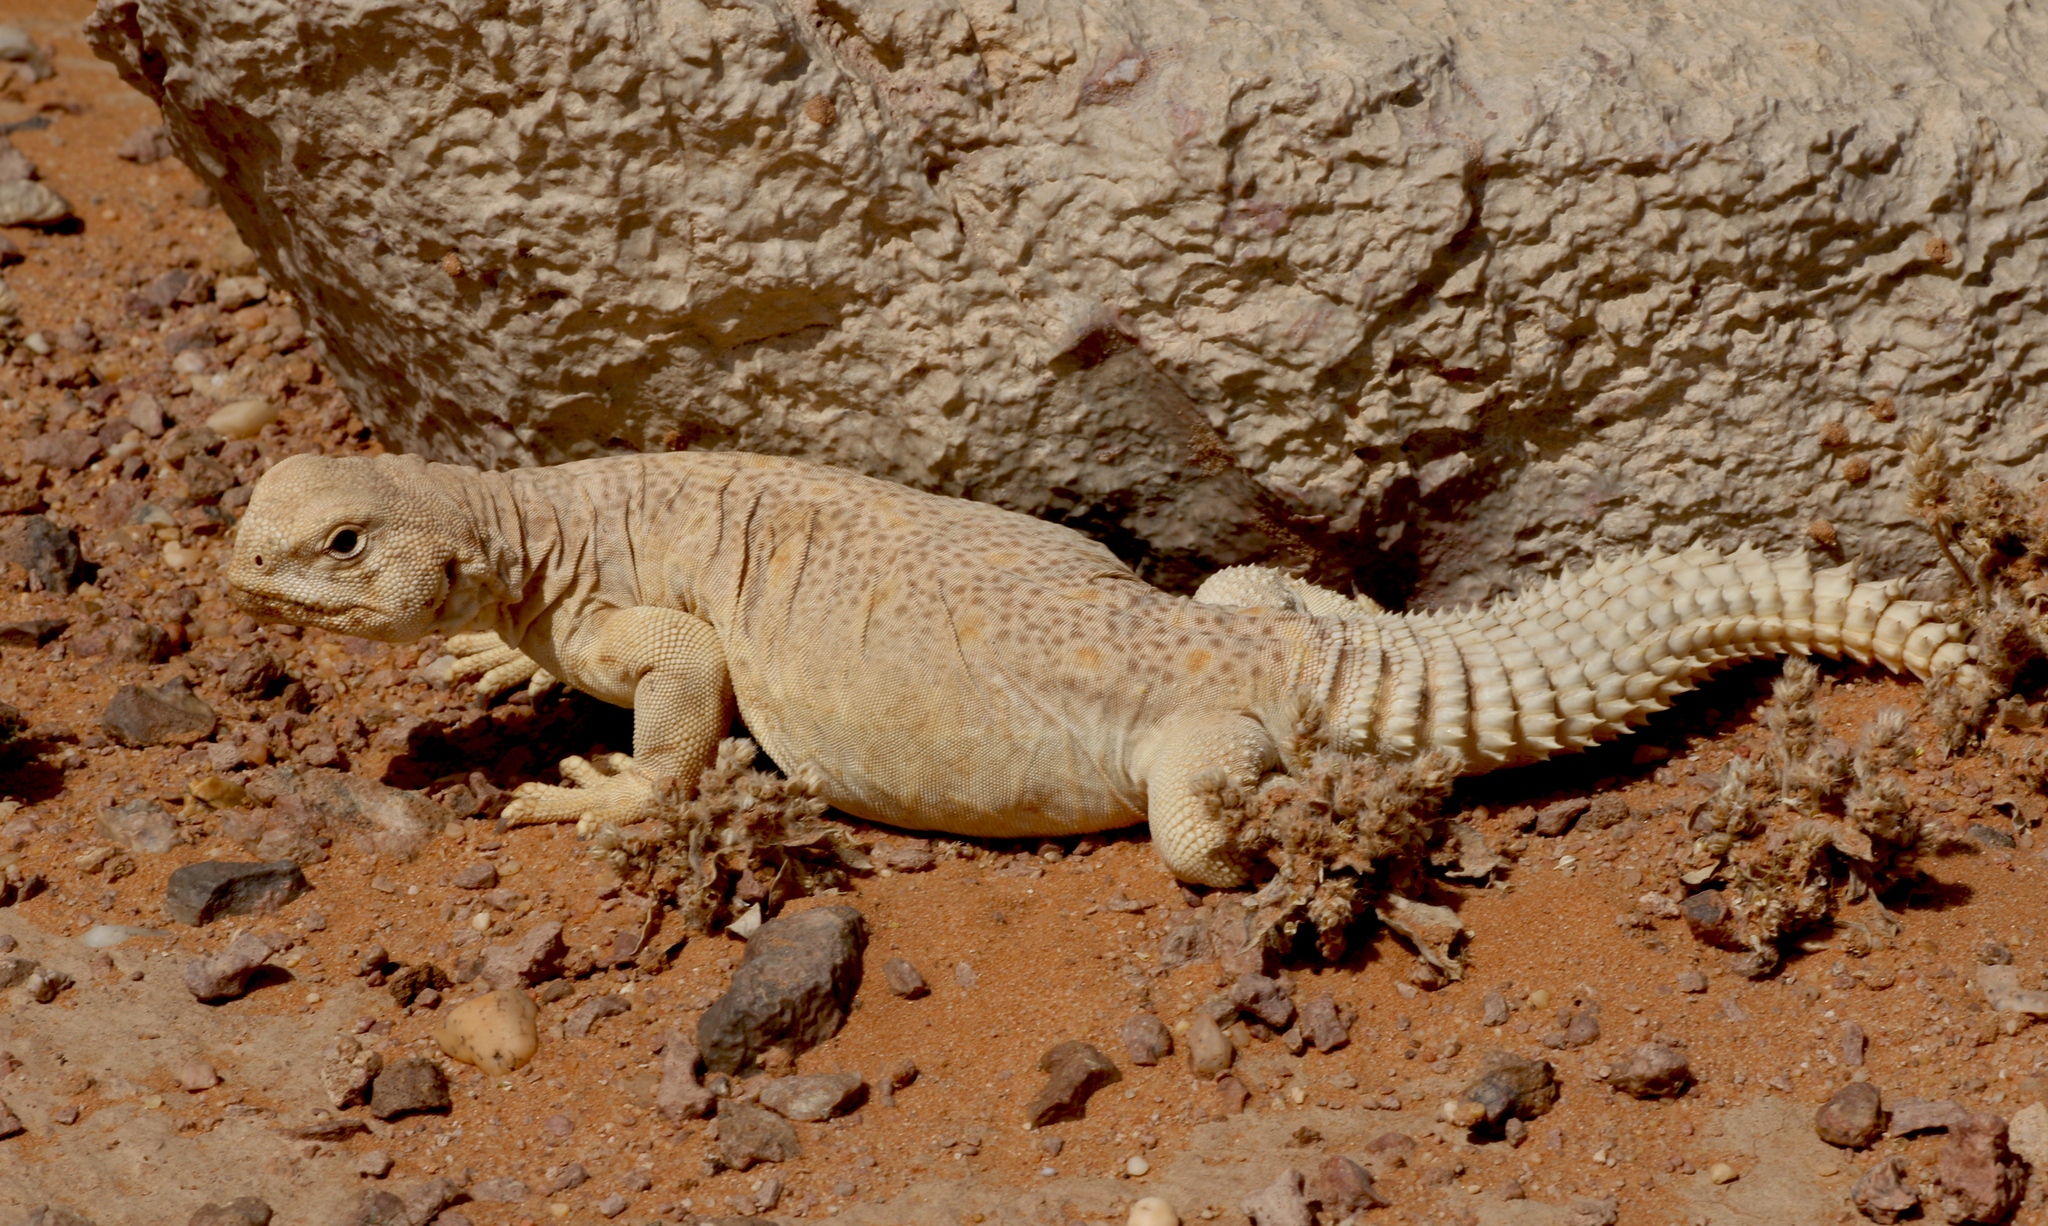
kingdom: Animalia
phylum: Chordata
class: Squamata
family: Agamidae
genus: Uromastyx
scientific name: Uromastyx aegyptia
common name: Egyptian mastigure
